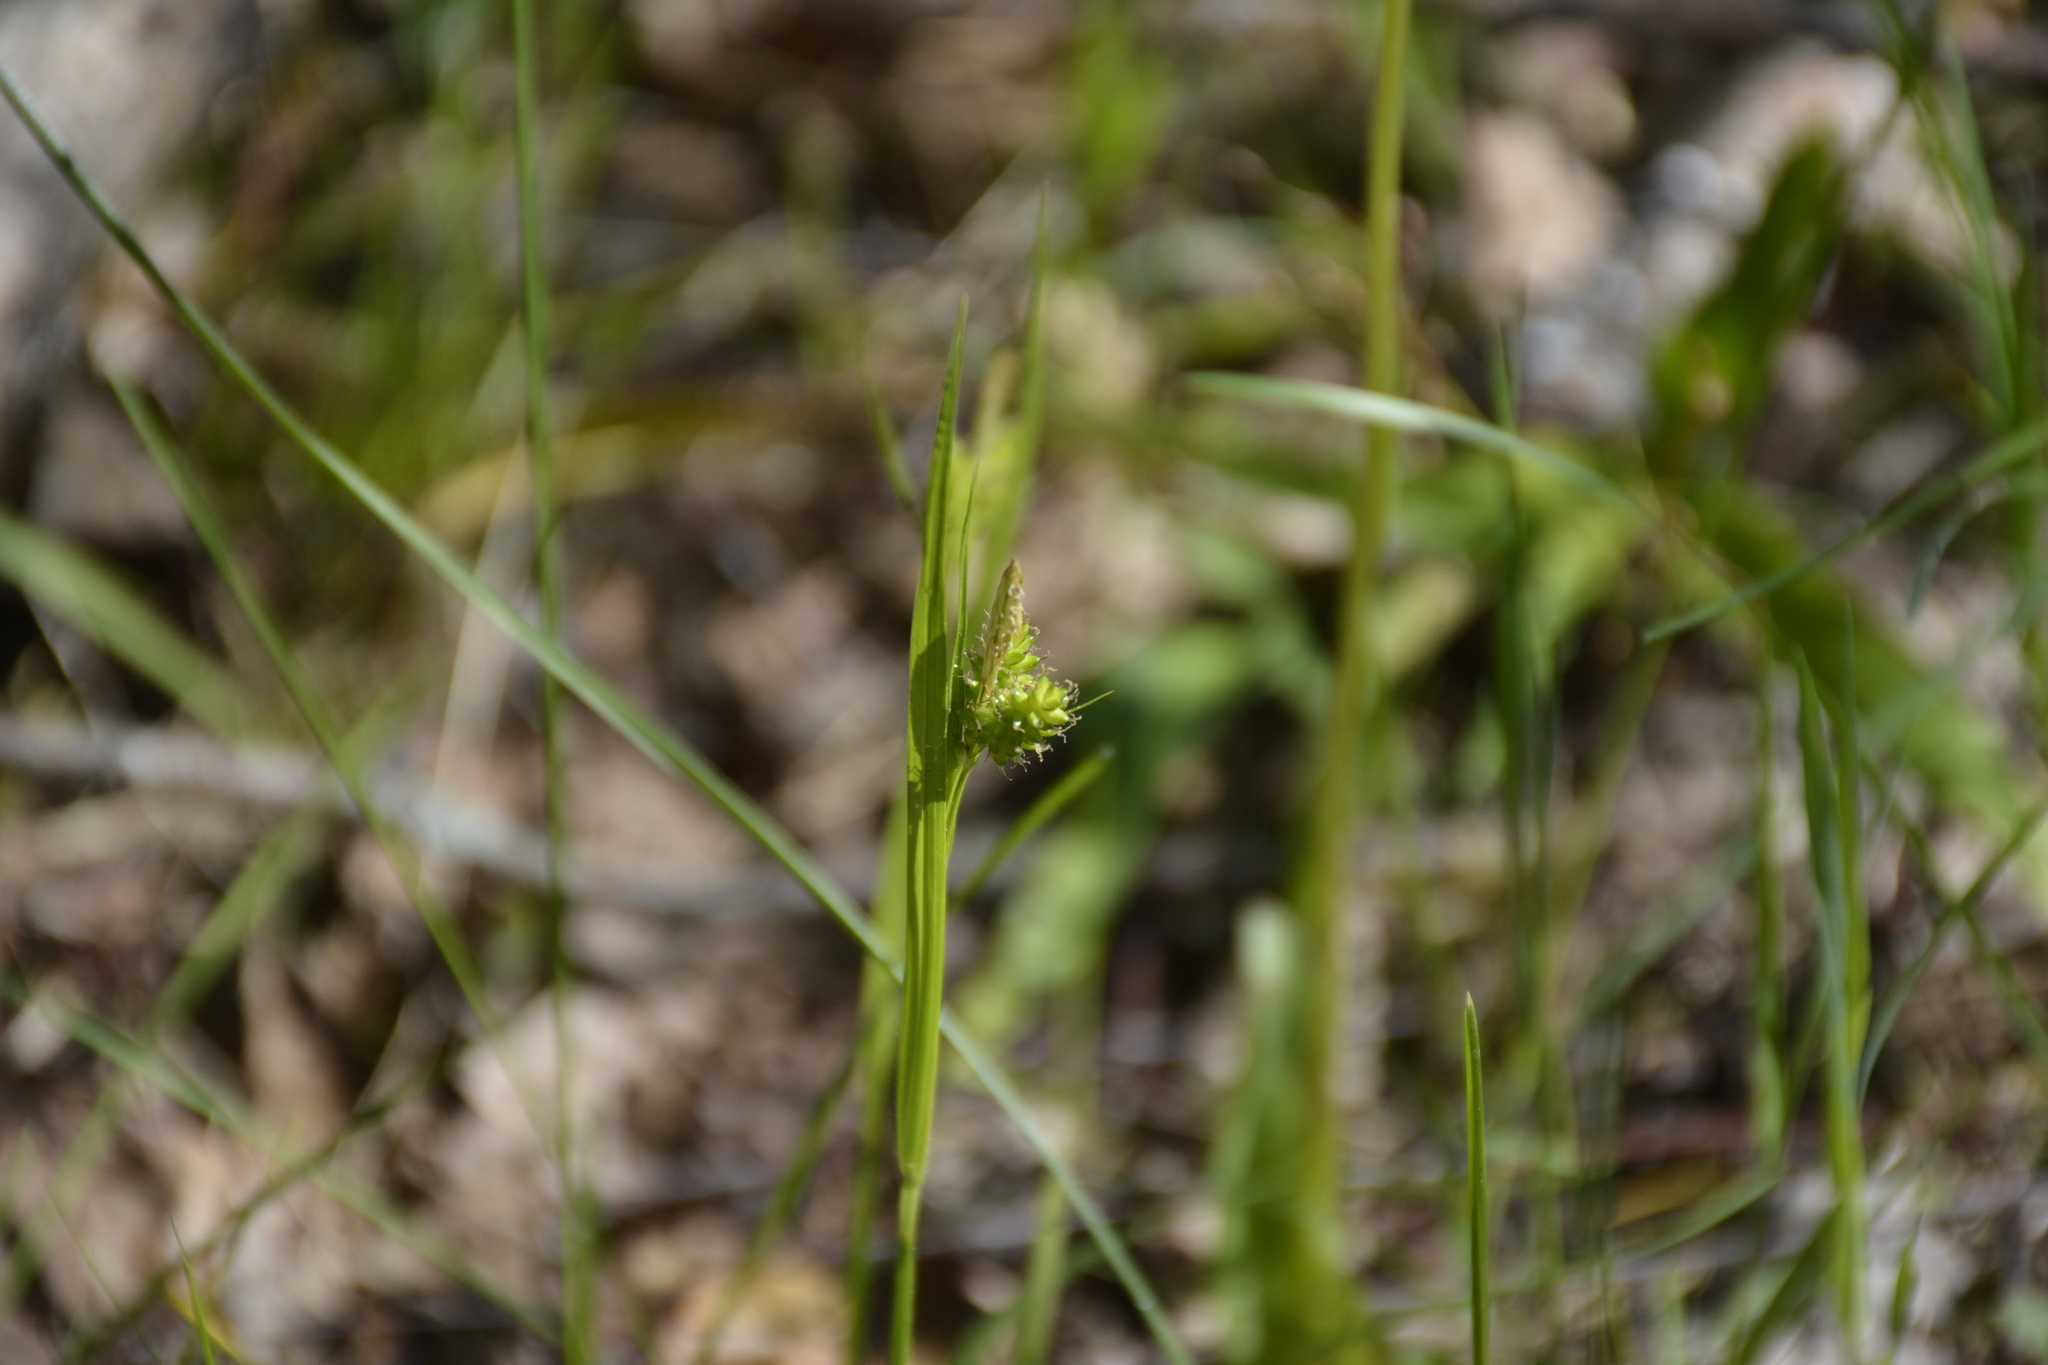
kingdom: Plantae
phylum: Tracheophyta
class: Liliopsida
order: Poales
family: Cyperaceae
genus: Carex
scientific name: Carex pallescens
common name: Pale sedge
